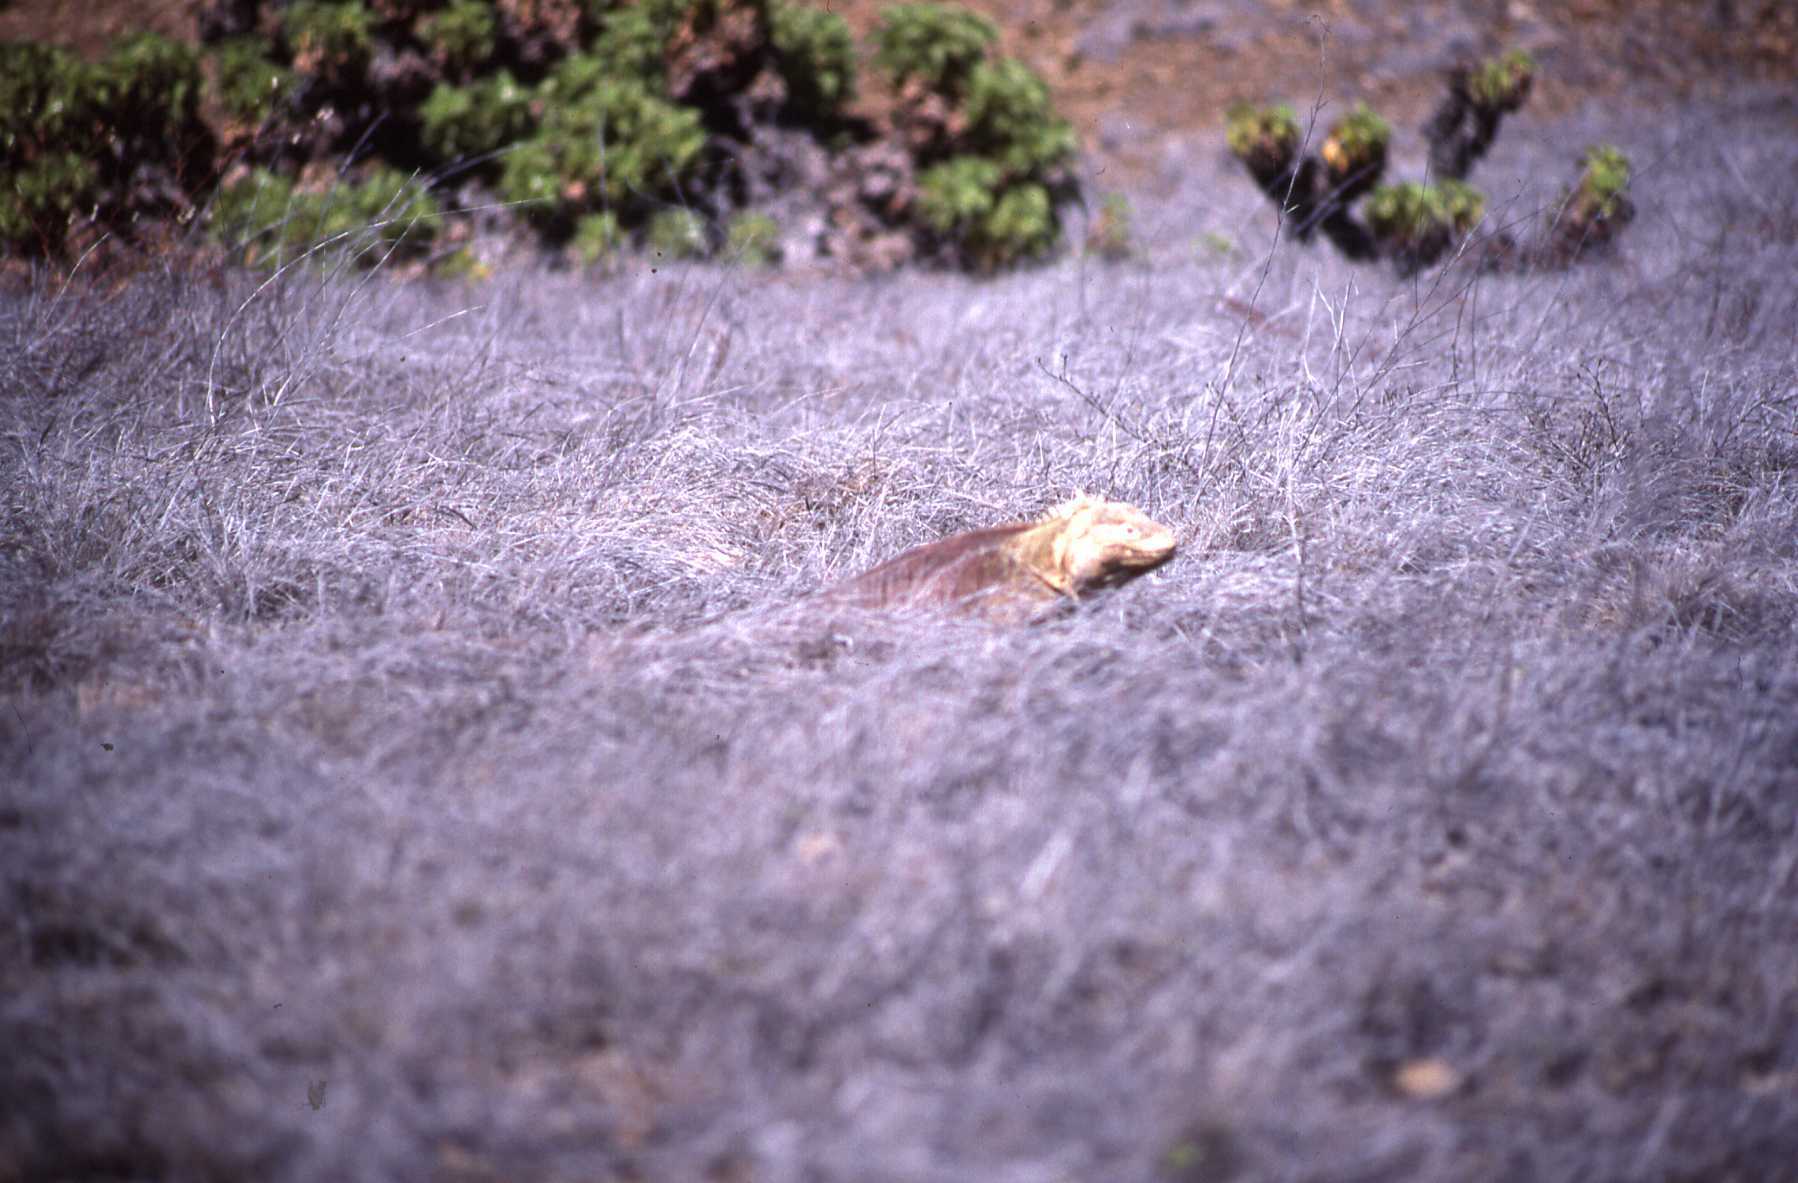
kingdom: Animalia
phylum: Chordata
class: Squamata
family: Iguanidae
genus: Conolophus
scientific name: Conolophus subcristatus
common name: Galapagos land iguana
